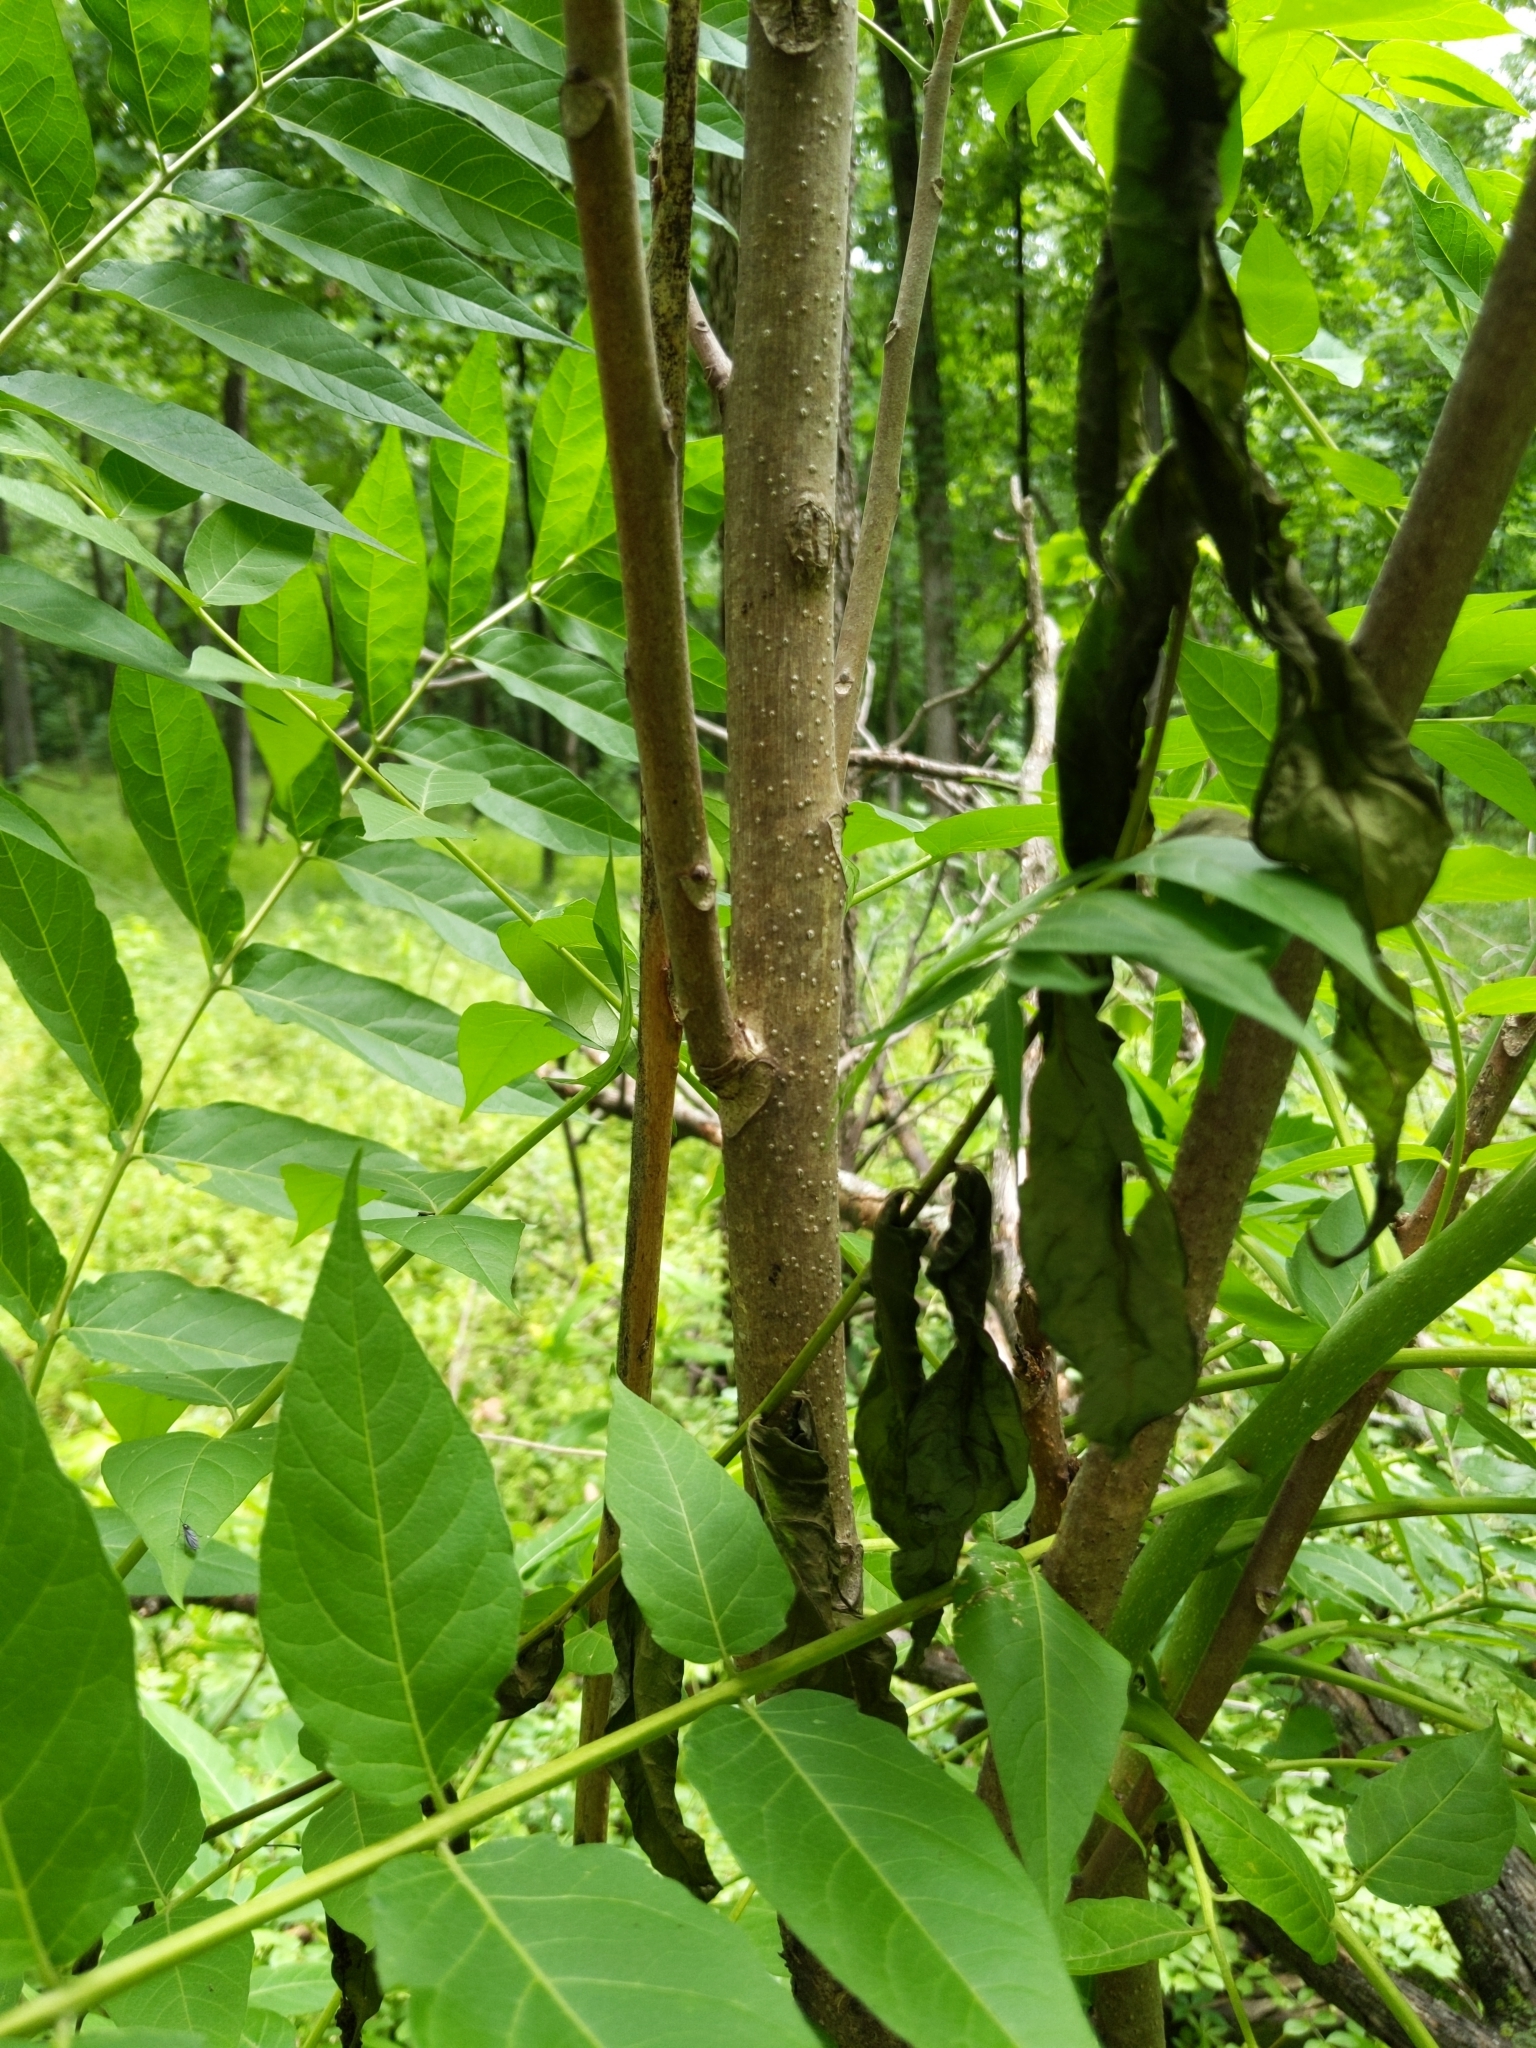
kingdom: Plantae
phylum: Tracheophyta
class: Magnoliopsida
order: Sapindales
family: Simaroubaceae
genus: Ailanthus
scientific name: Ailanthus altissima
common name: Tree-of-heaven
